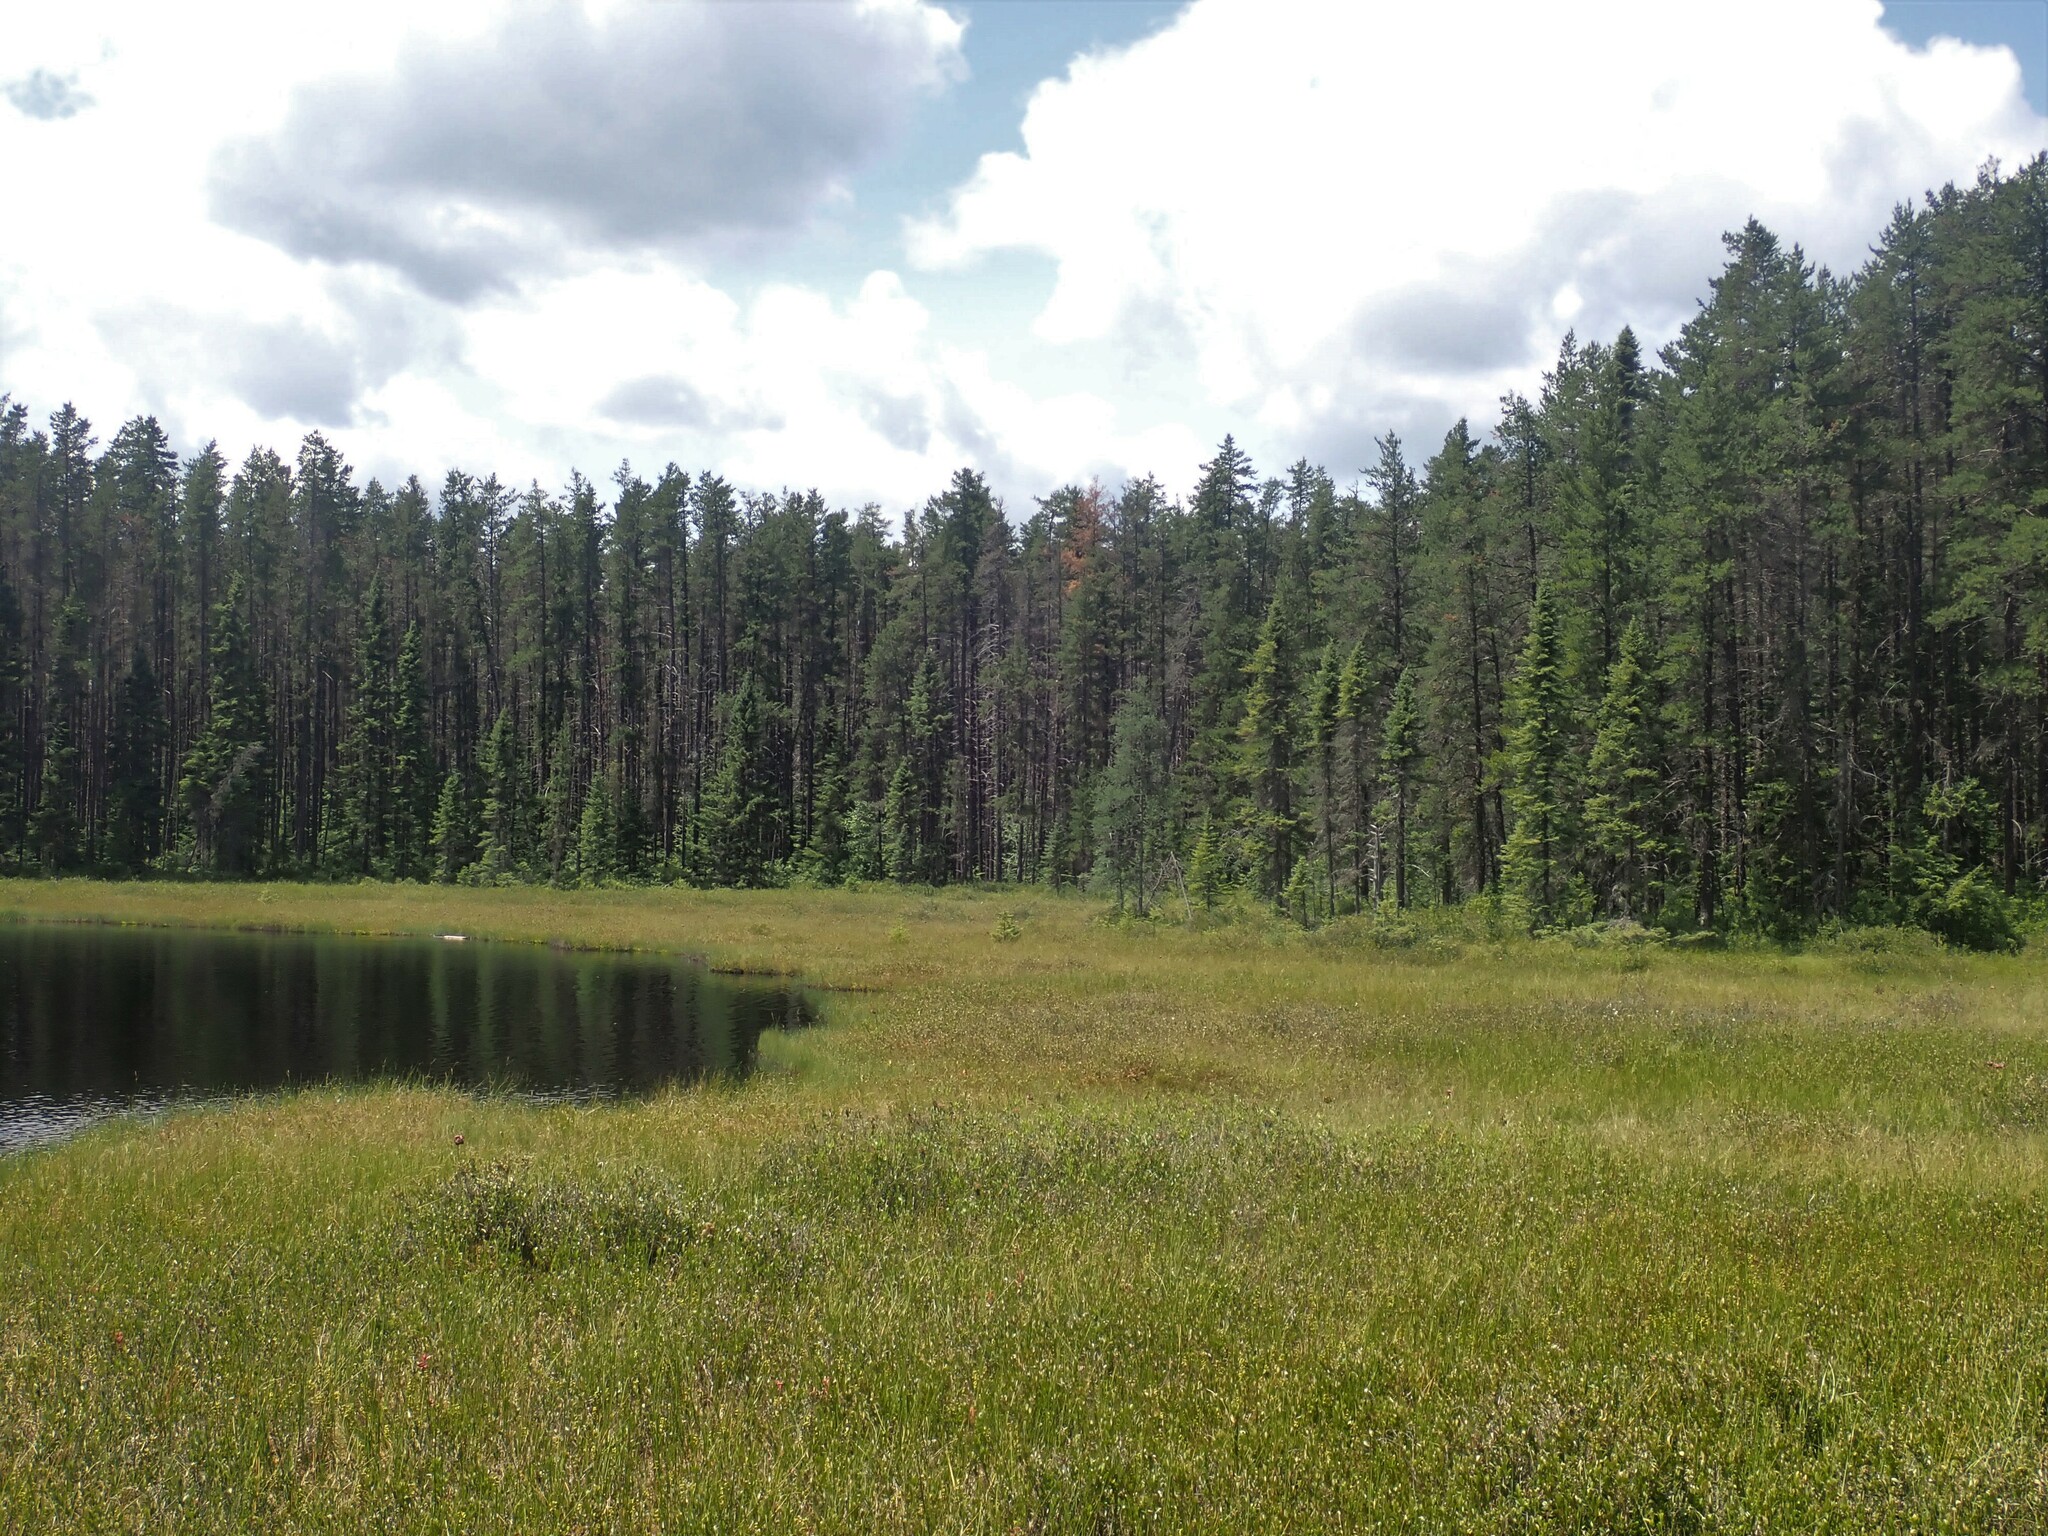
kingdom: Plantae
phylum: Tracheophyta
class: Pinopsida
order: Pinales
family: Pinaceae
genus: Pinus
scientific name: Pinus banksiana
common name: Jack pine
